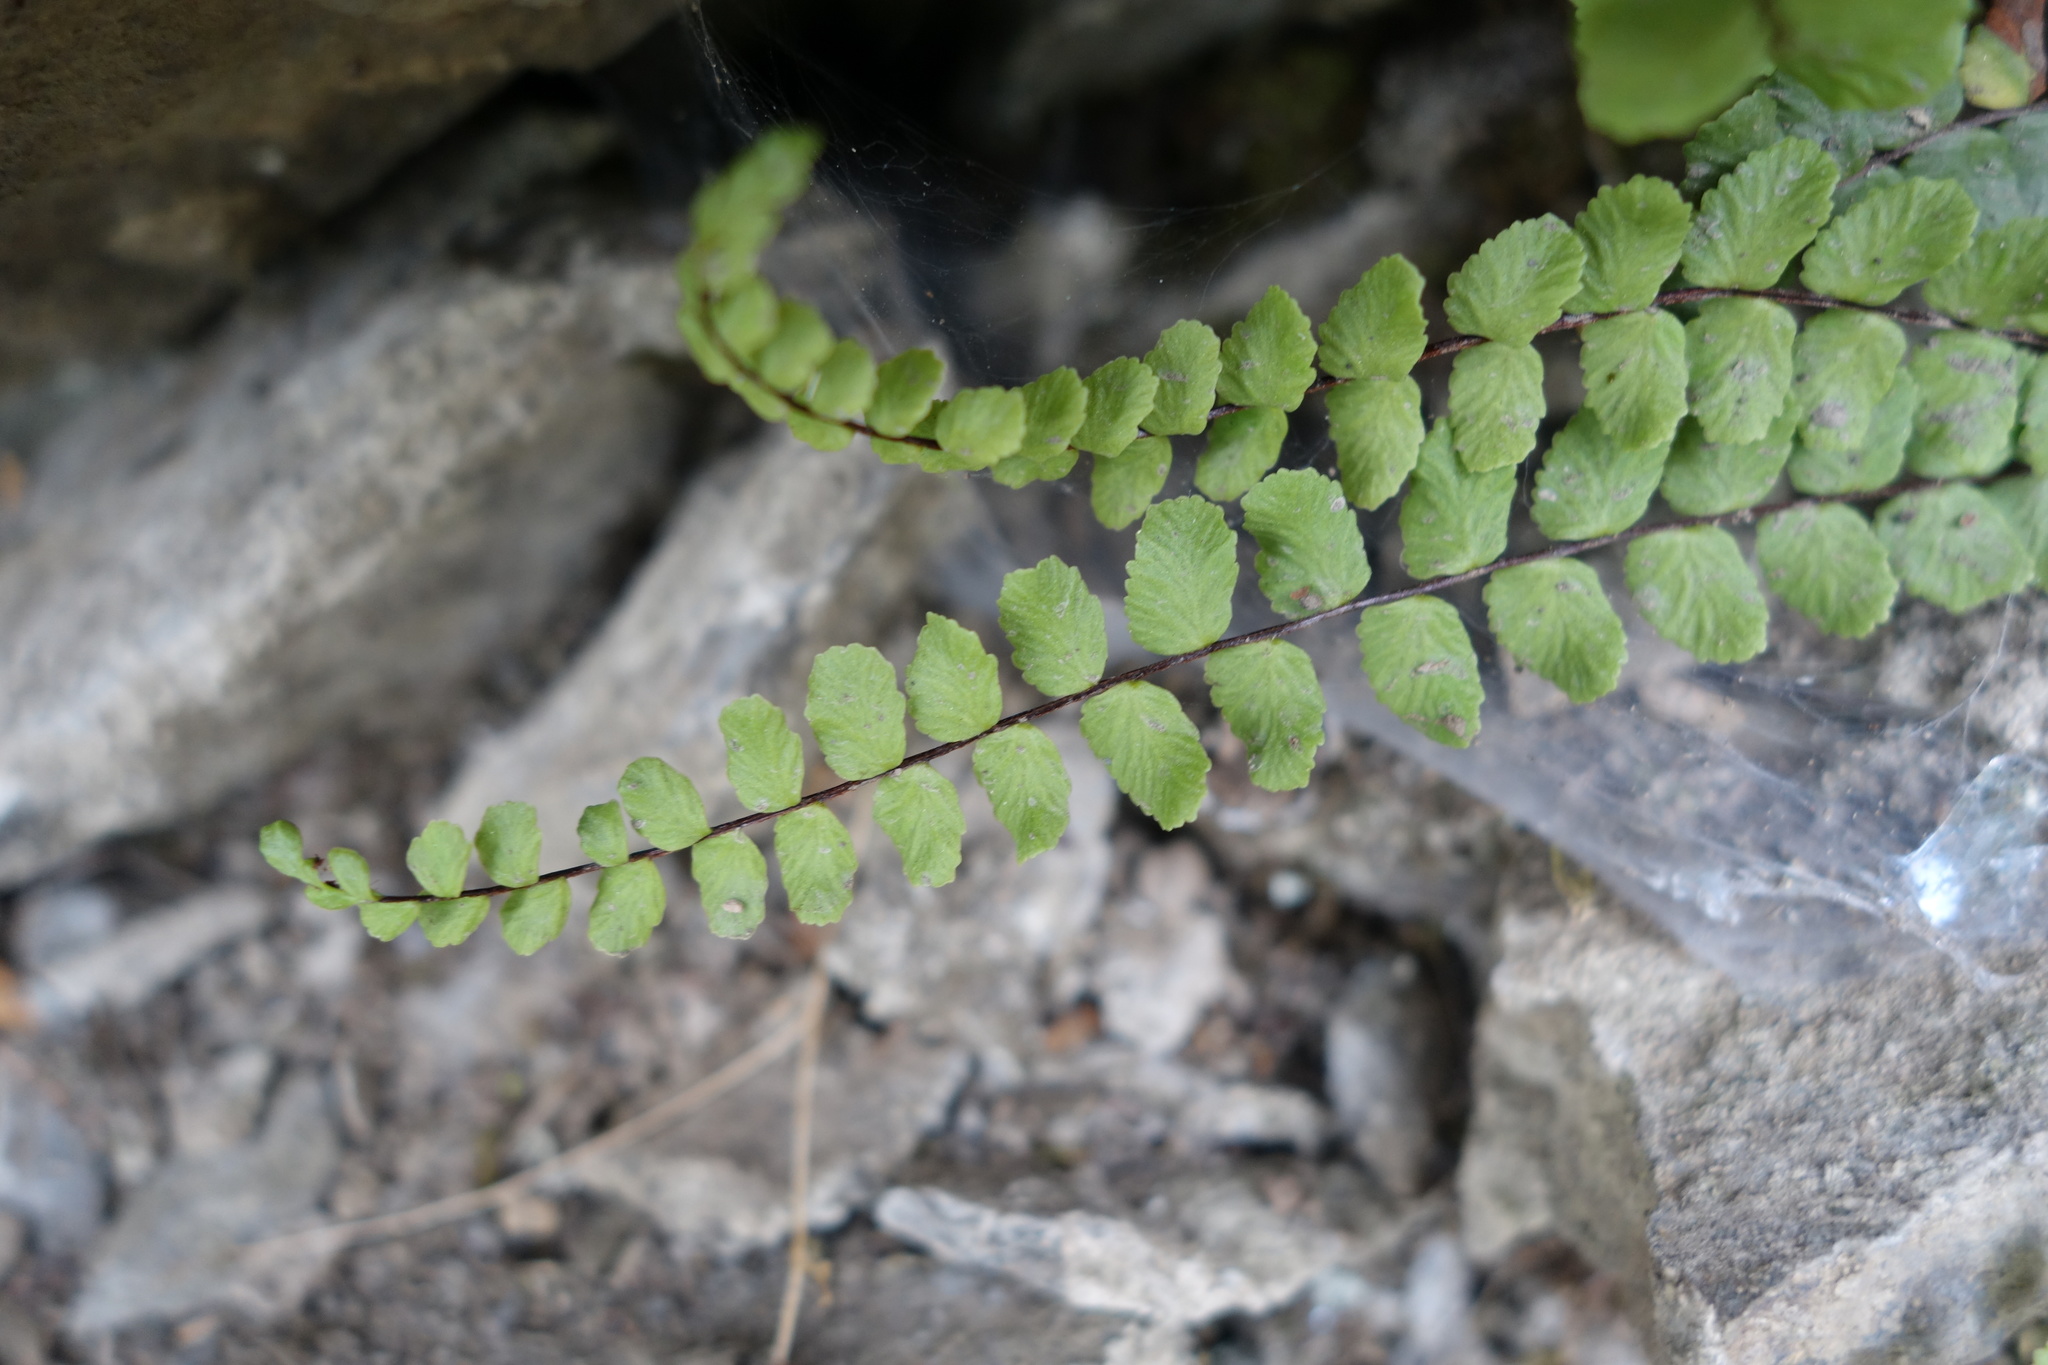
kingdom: Plantae
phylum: Tracheophyta
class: Polypodiopsida
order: Polypodiales
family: Aspleniaceae
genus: Asplenium
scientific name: Asplenium trichomanes
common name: Maidenhair spleenwort
